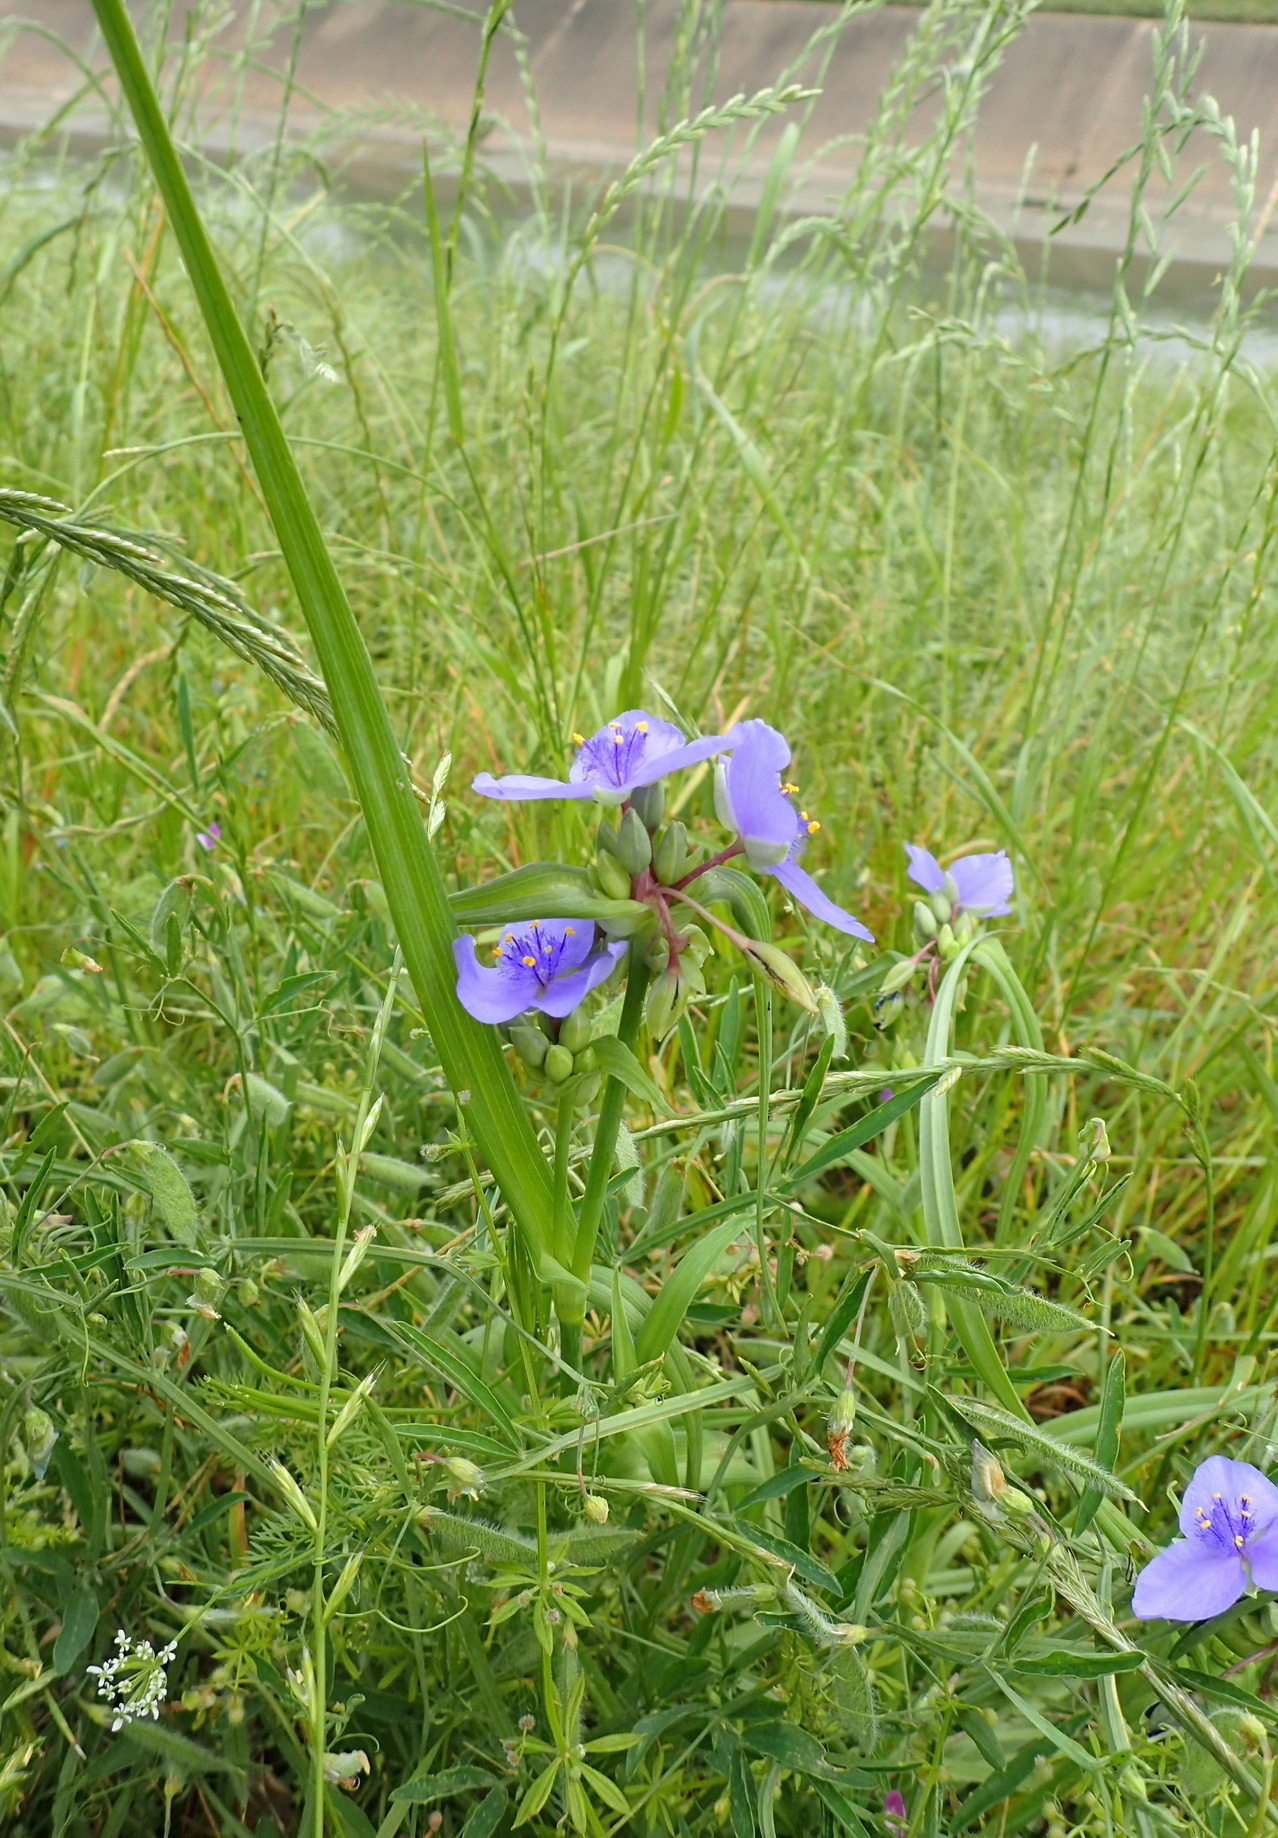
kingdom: Plantae
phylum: Tracheophyta
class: Liliopsida
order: Commelinales
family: Commelinaceae
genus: Tradescantia
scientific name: Tradescantia ohiensis
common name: Ohio spiderwort
